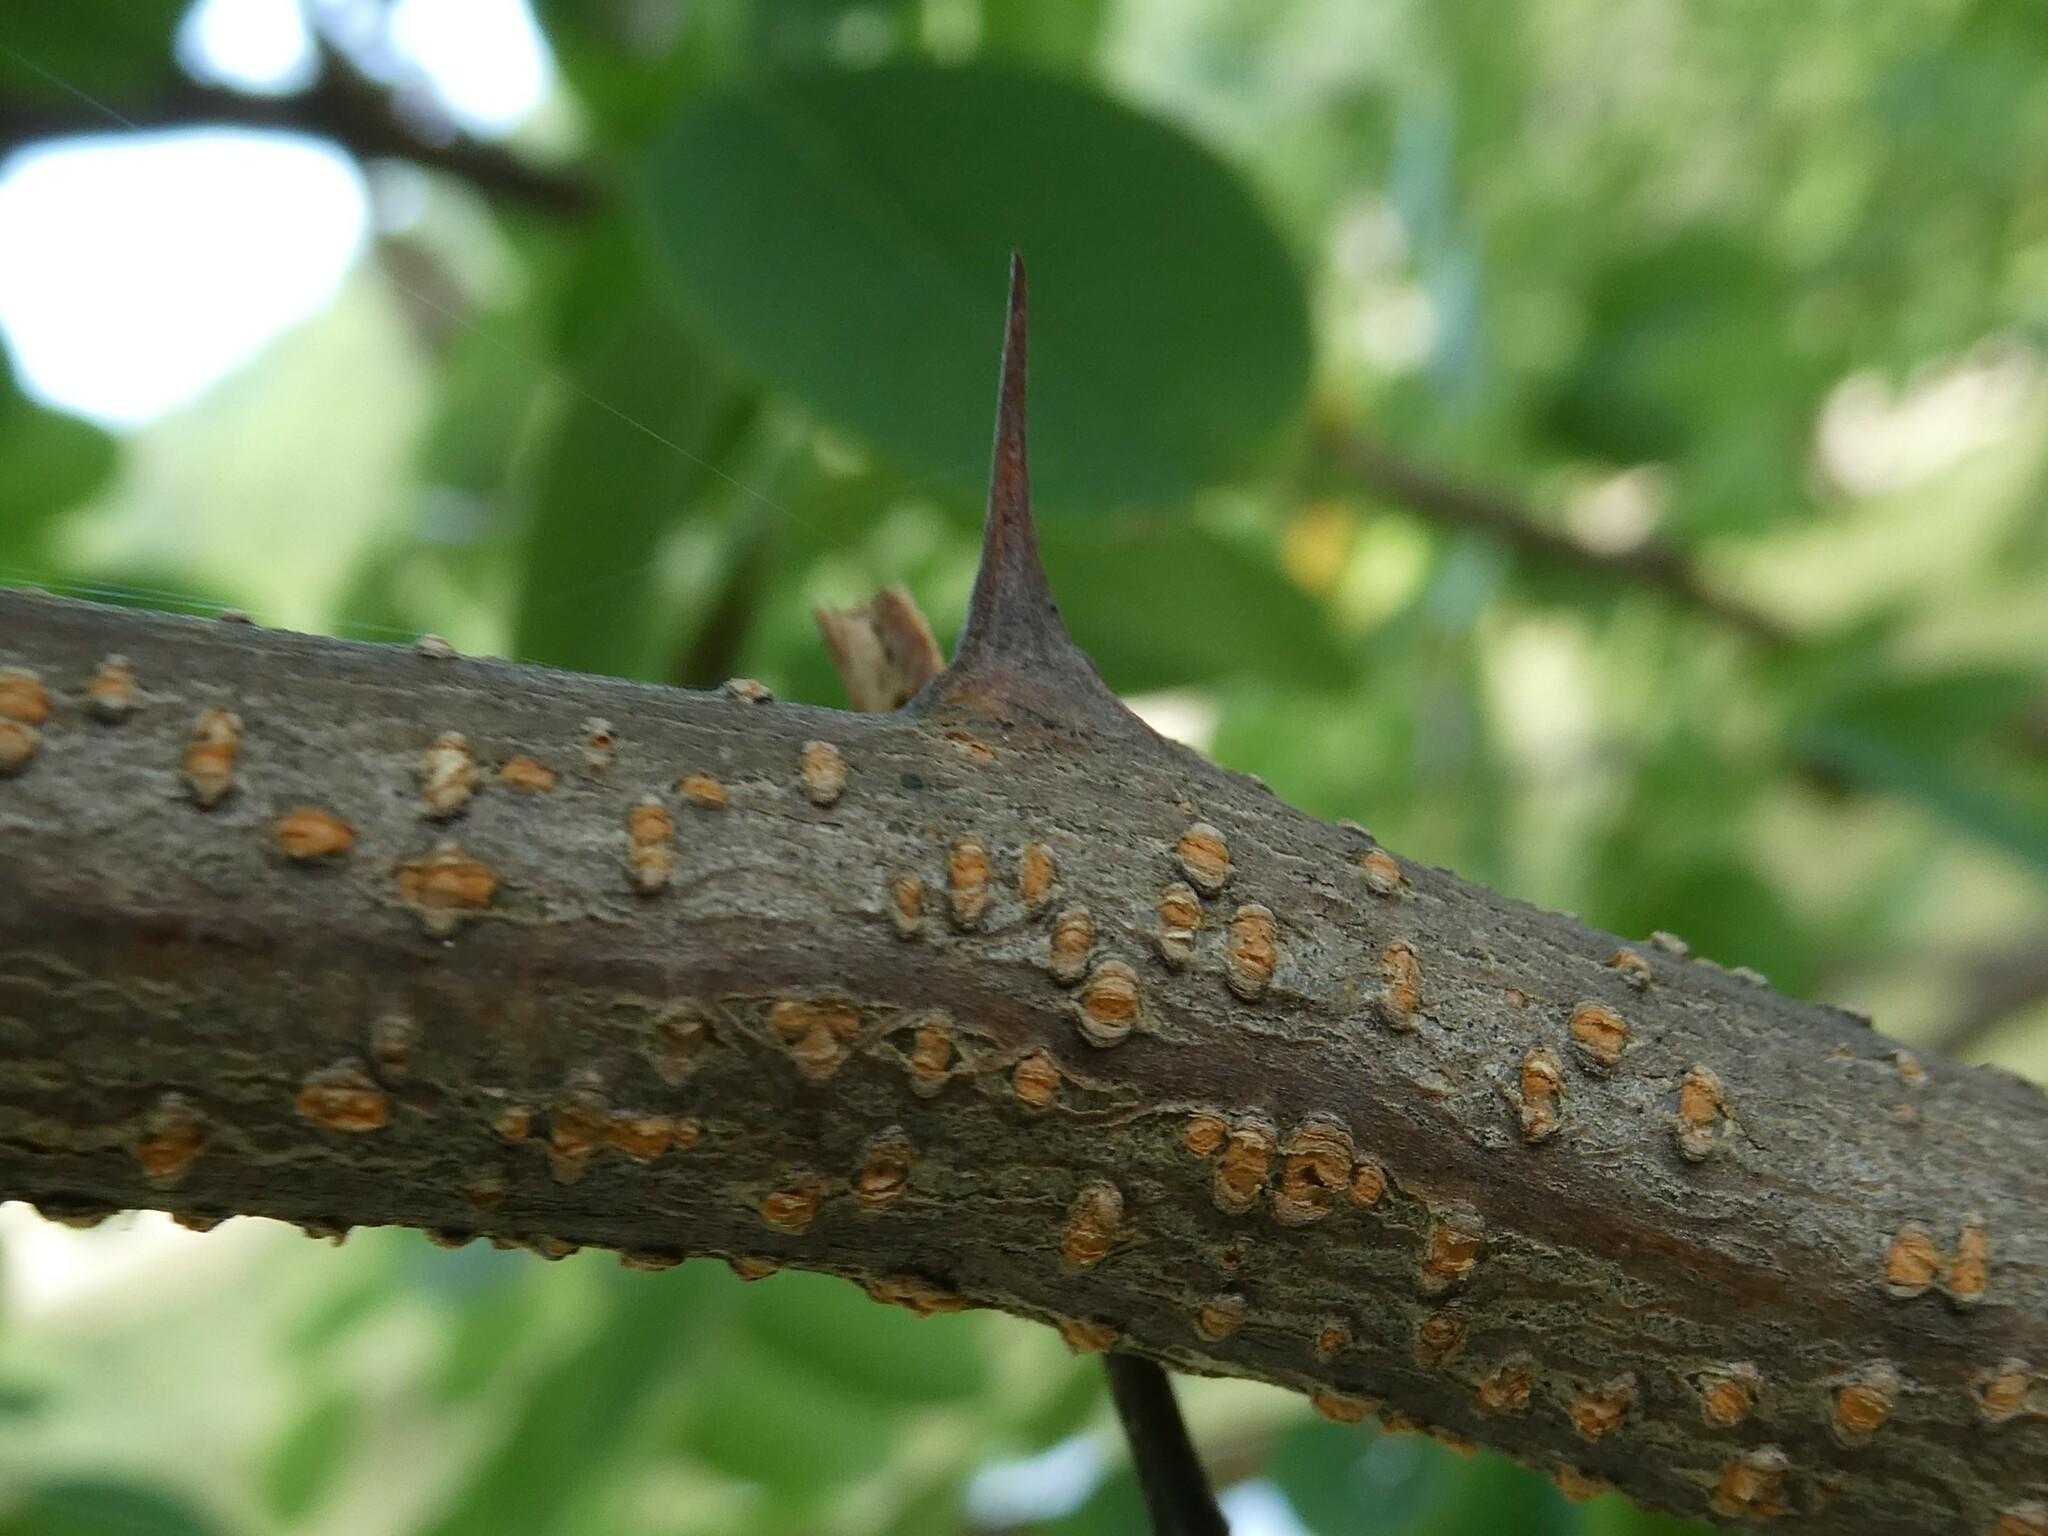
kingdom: Plantae
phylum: Tracheophyta
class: Magnoliopsida
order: Fabales
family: Fabaceae
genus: Robinia
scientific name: Robinia pseudoacacia
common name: Black locust
